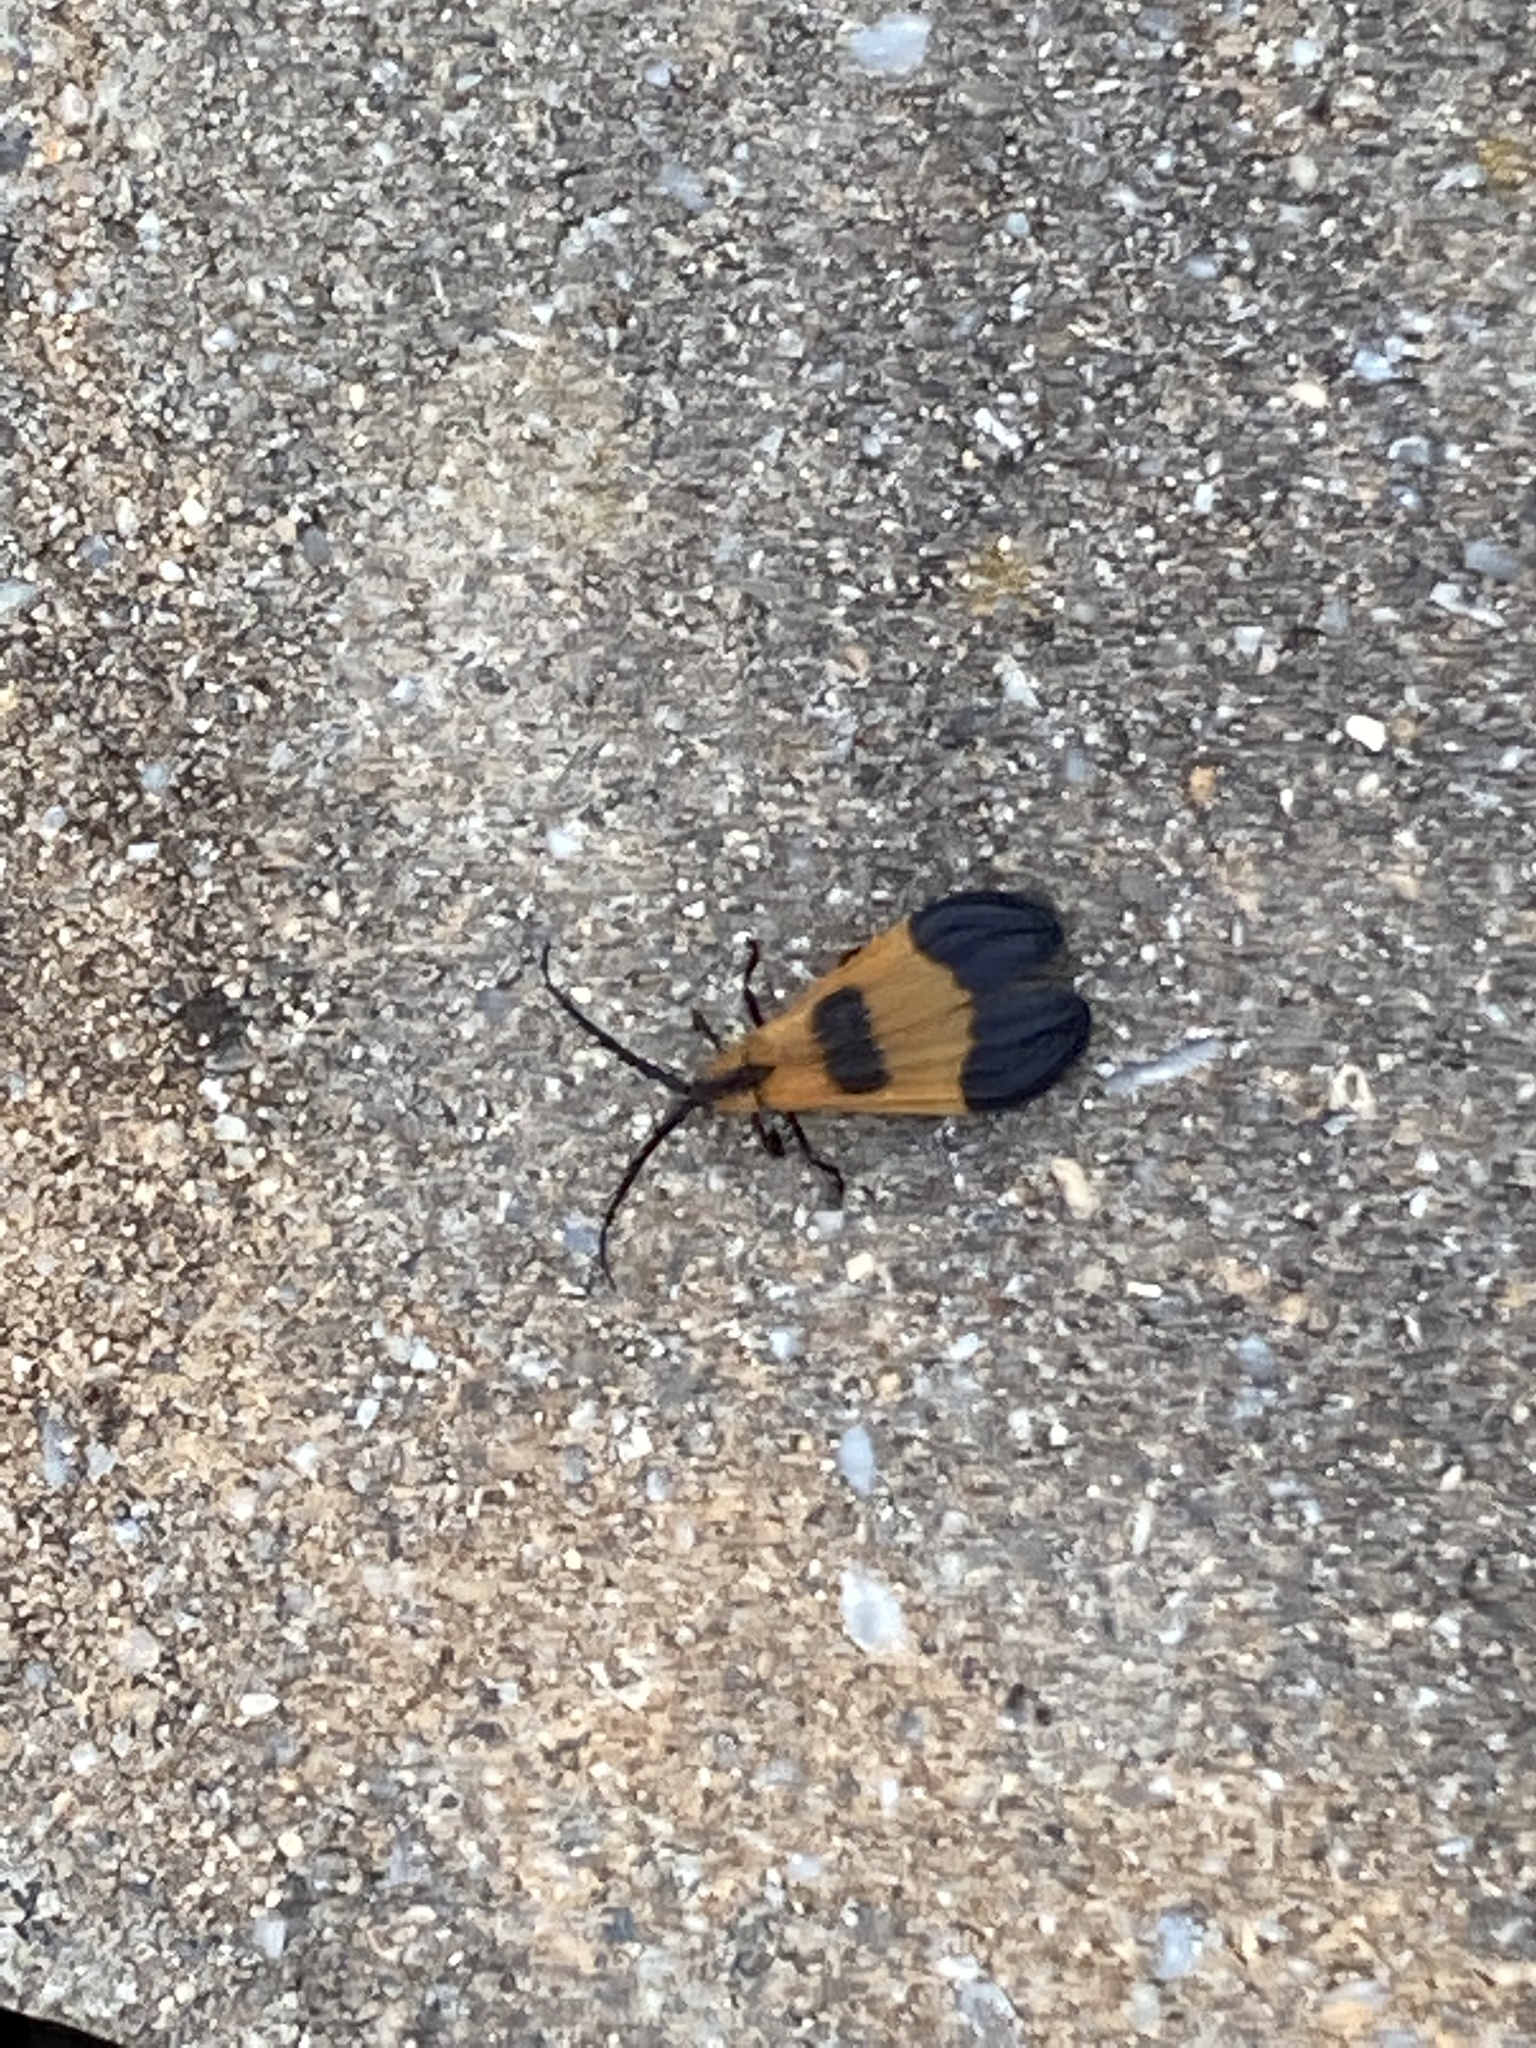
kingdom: Animalia
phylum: Arthropoda
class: Insecta
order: Coleoptera
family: Lycidae
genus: Calopteron
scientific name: Calopteron terminale
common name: End band net-winged beetle
